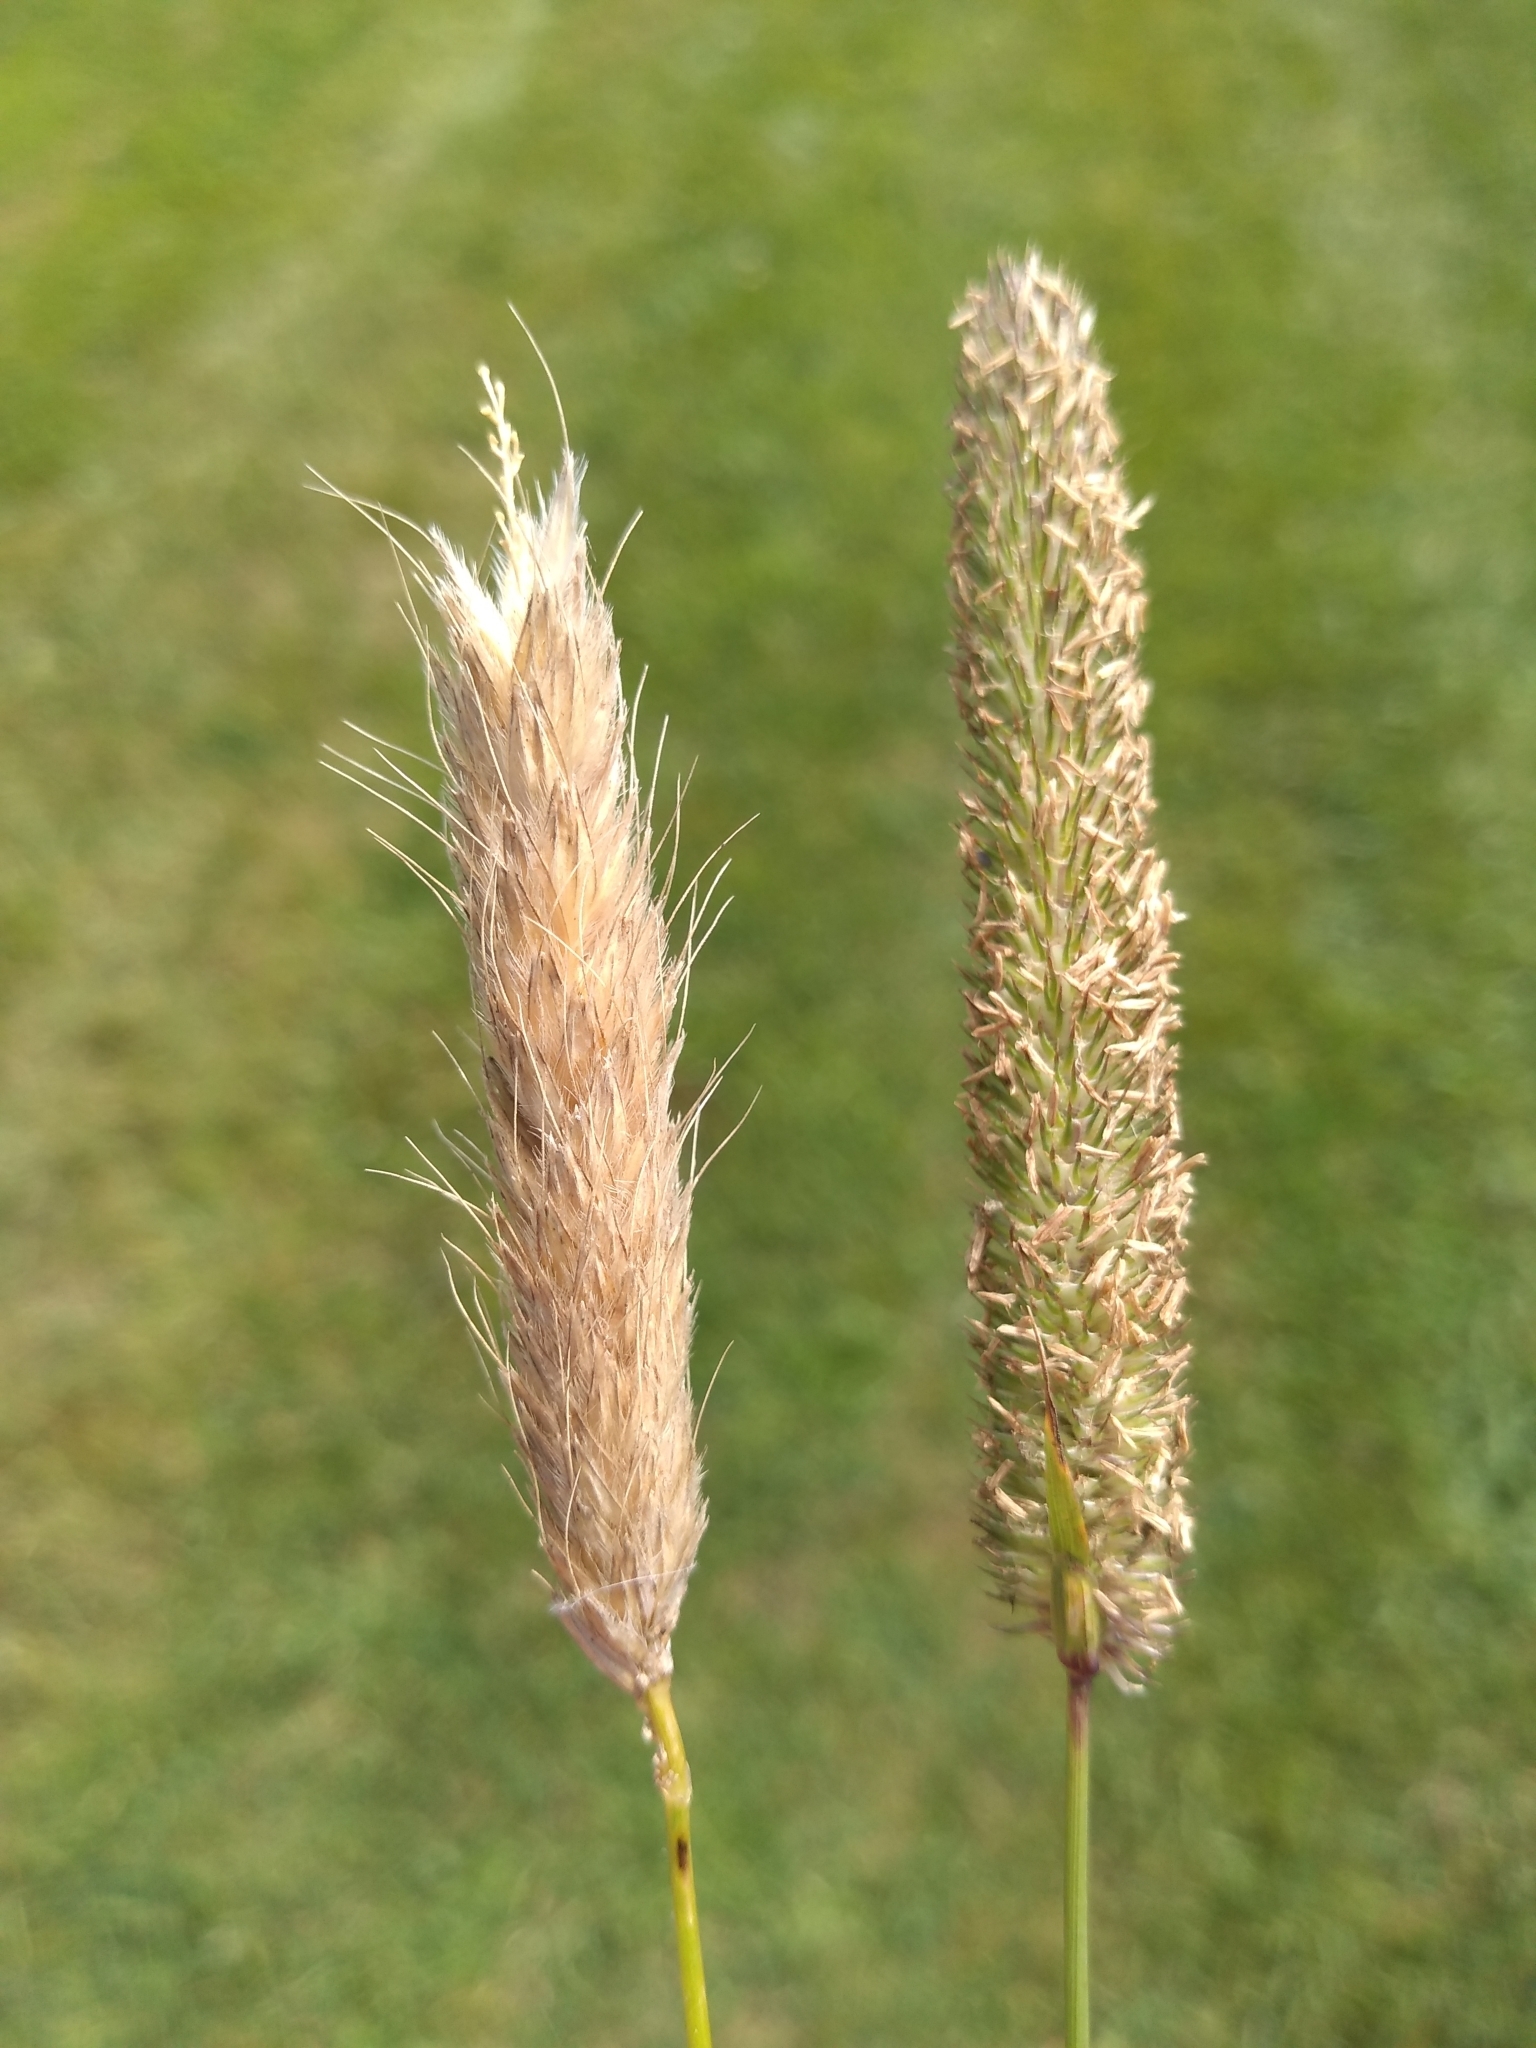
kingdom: Plantae
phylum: Tracheophyta
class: Liliopsida
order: Poales
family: Poaceae
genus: Alopecurus
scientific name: Alopecurus pratensis
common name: Meadow foxtail
